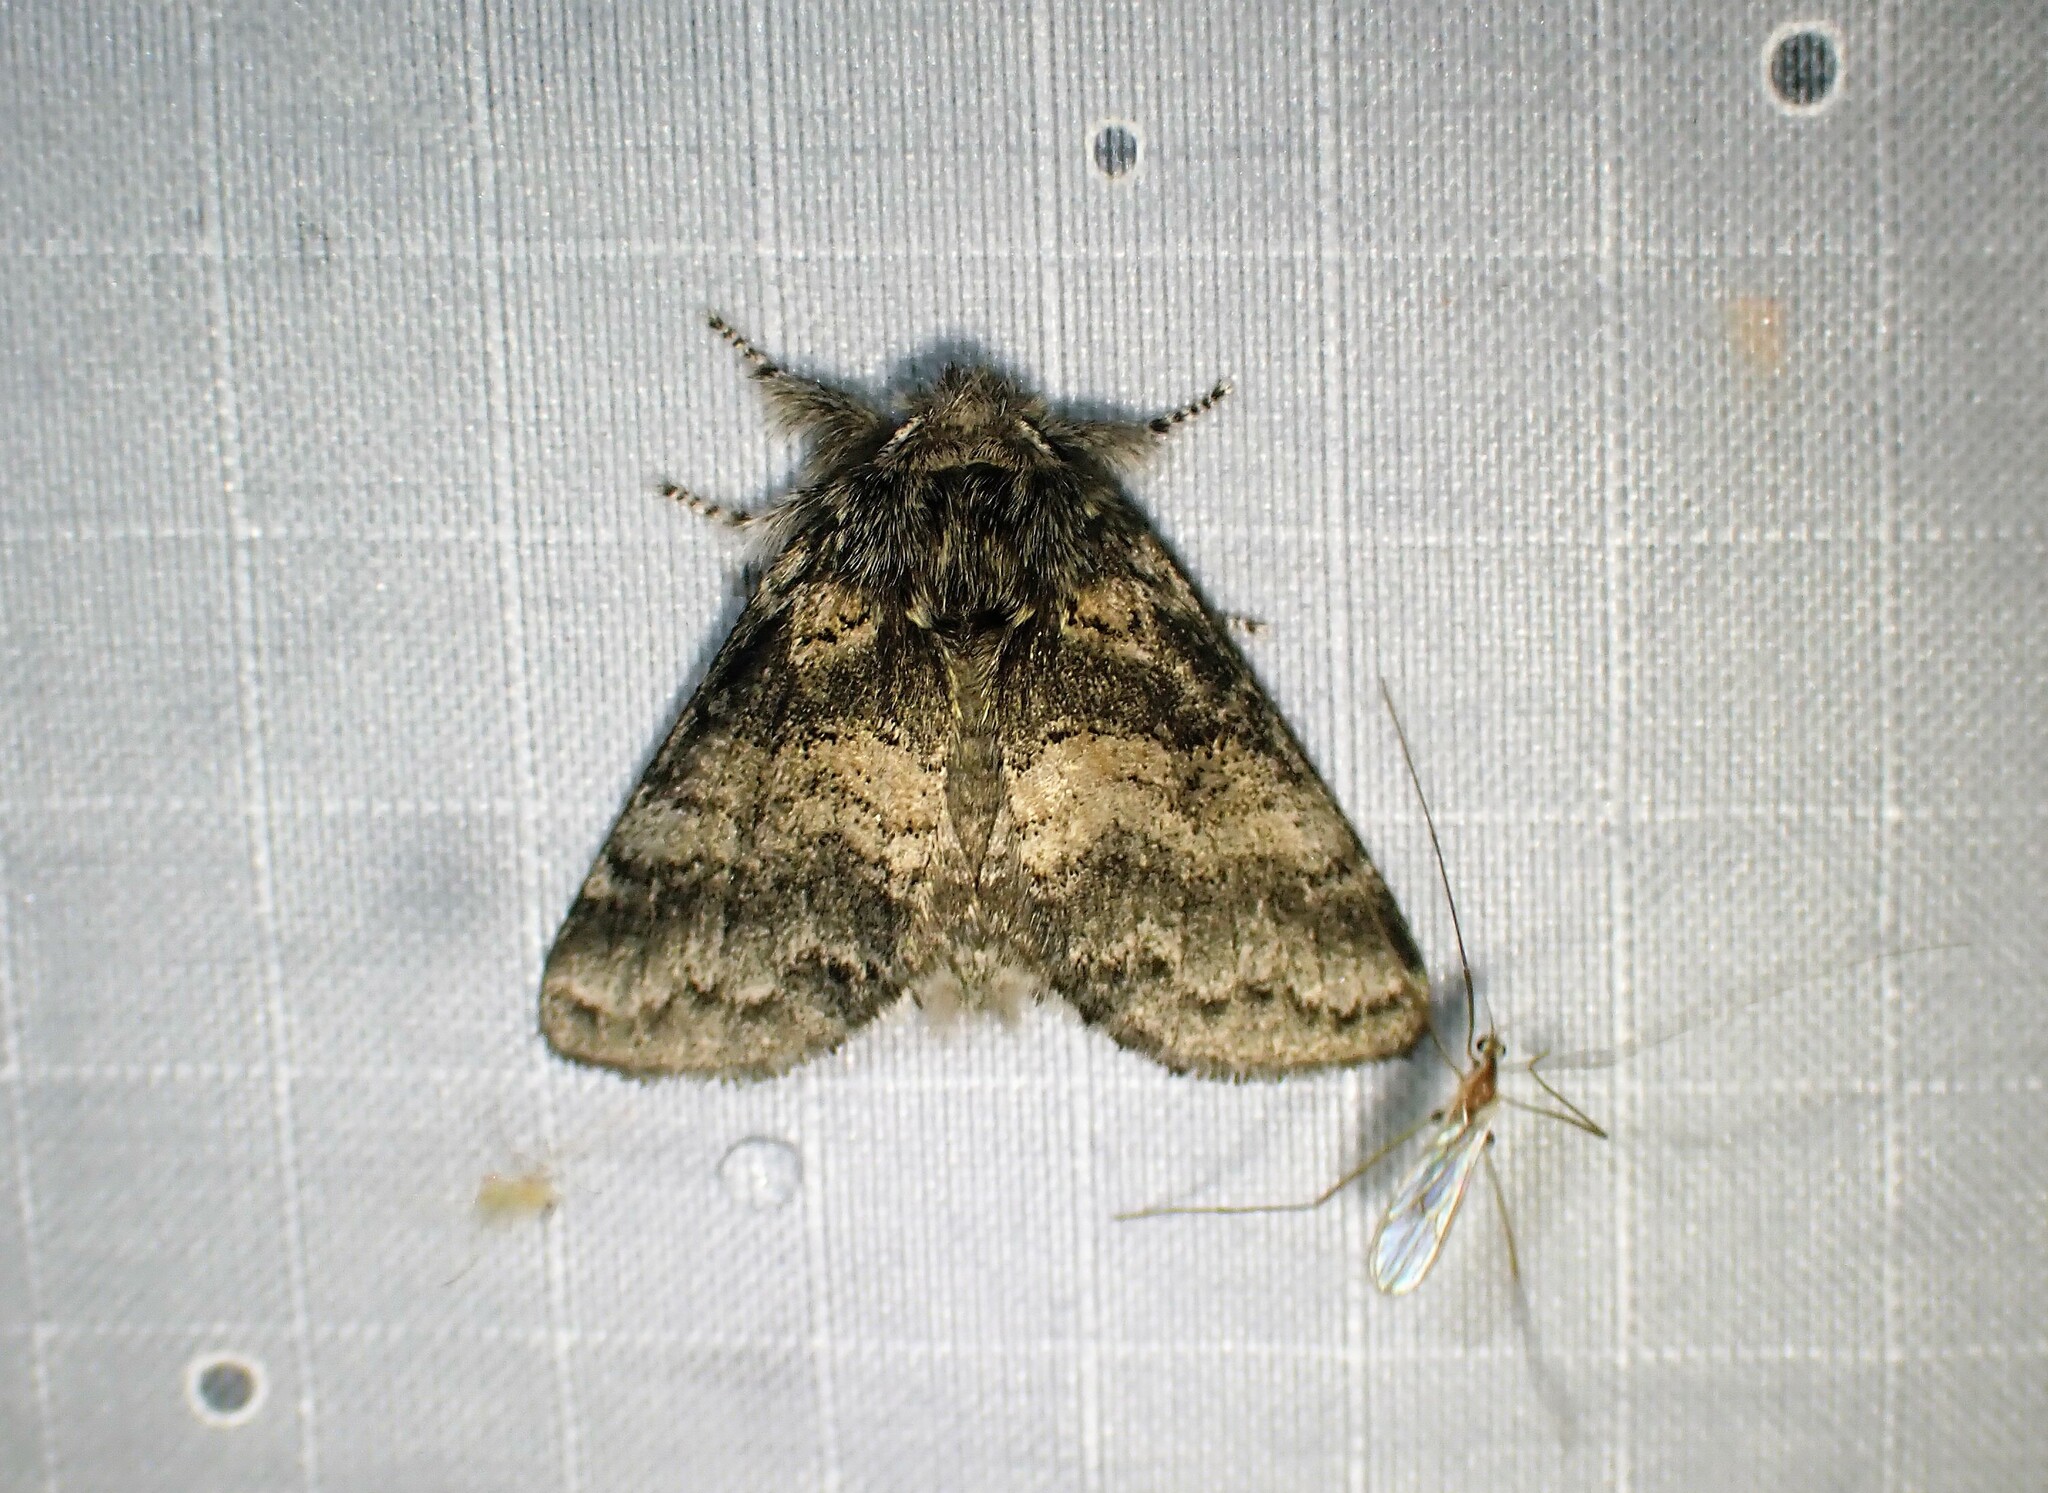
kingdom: Animalia
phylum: Arthropoda
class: Insecta
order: Lepidoptera
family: Notodontidae
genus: Gluphisia
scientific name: Gluphisia septentrionis
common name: Common gluphisia
